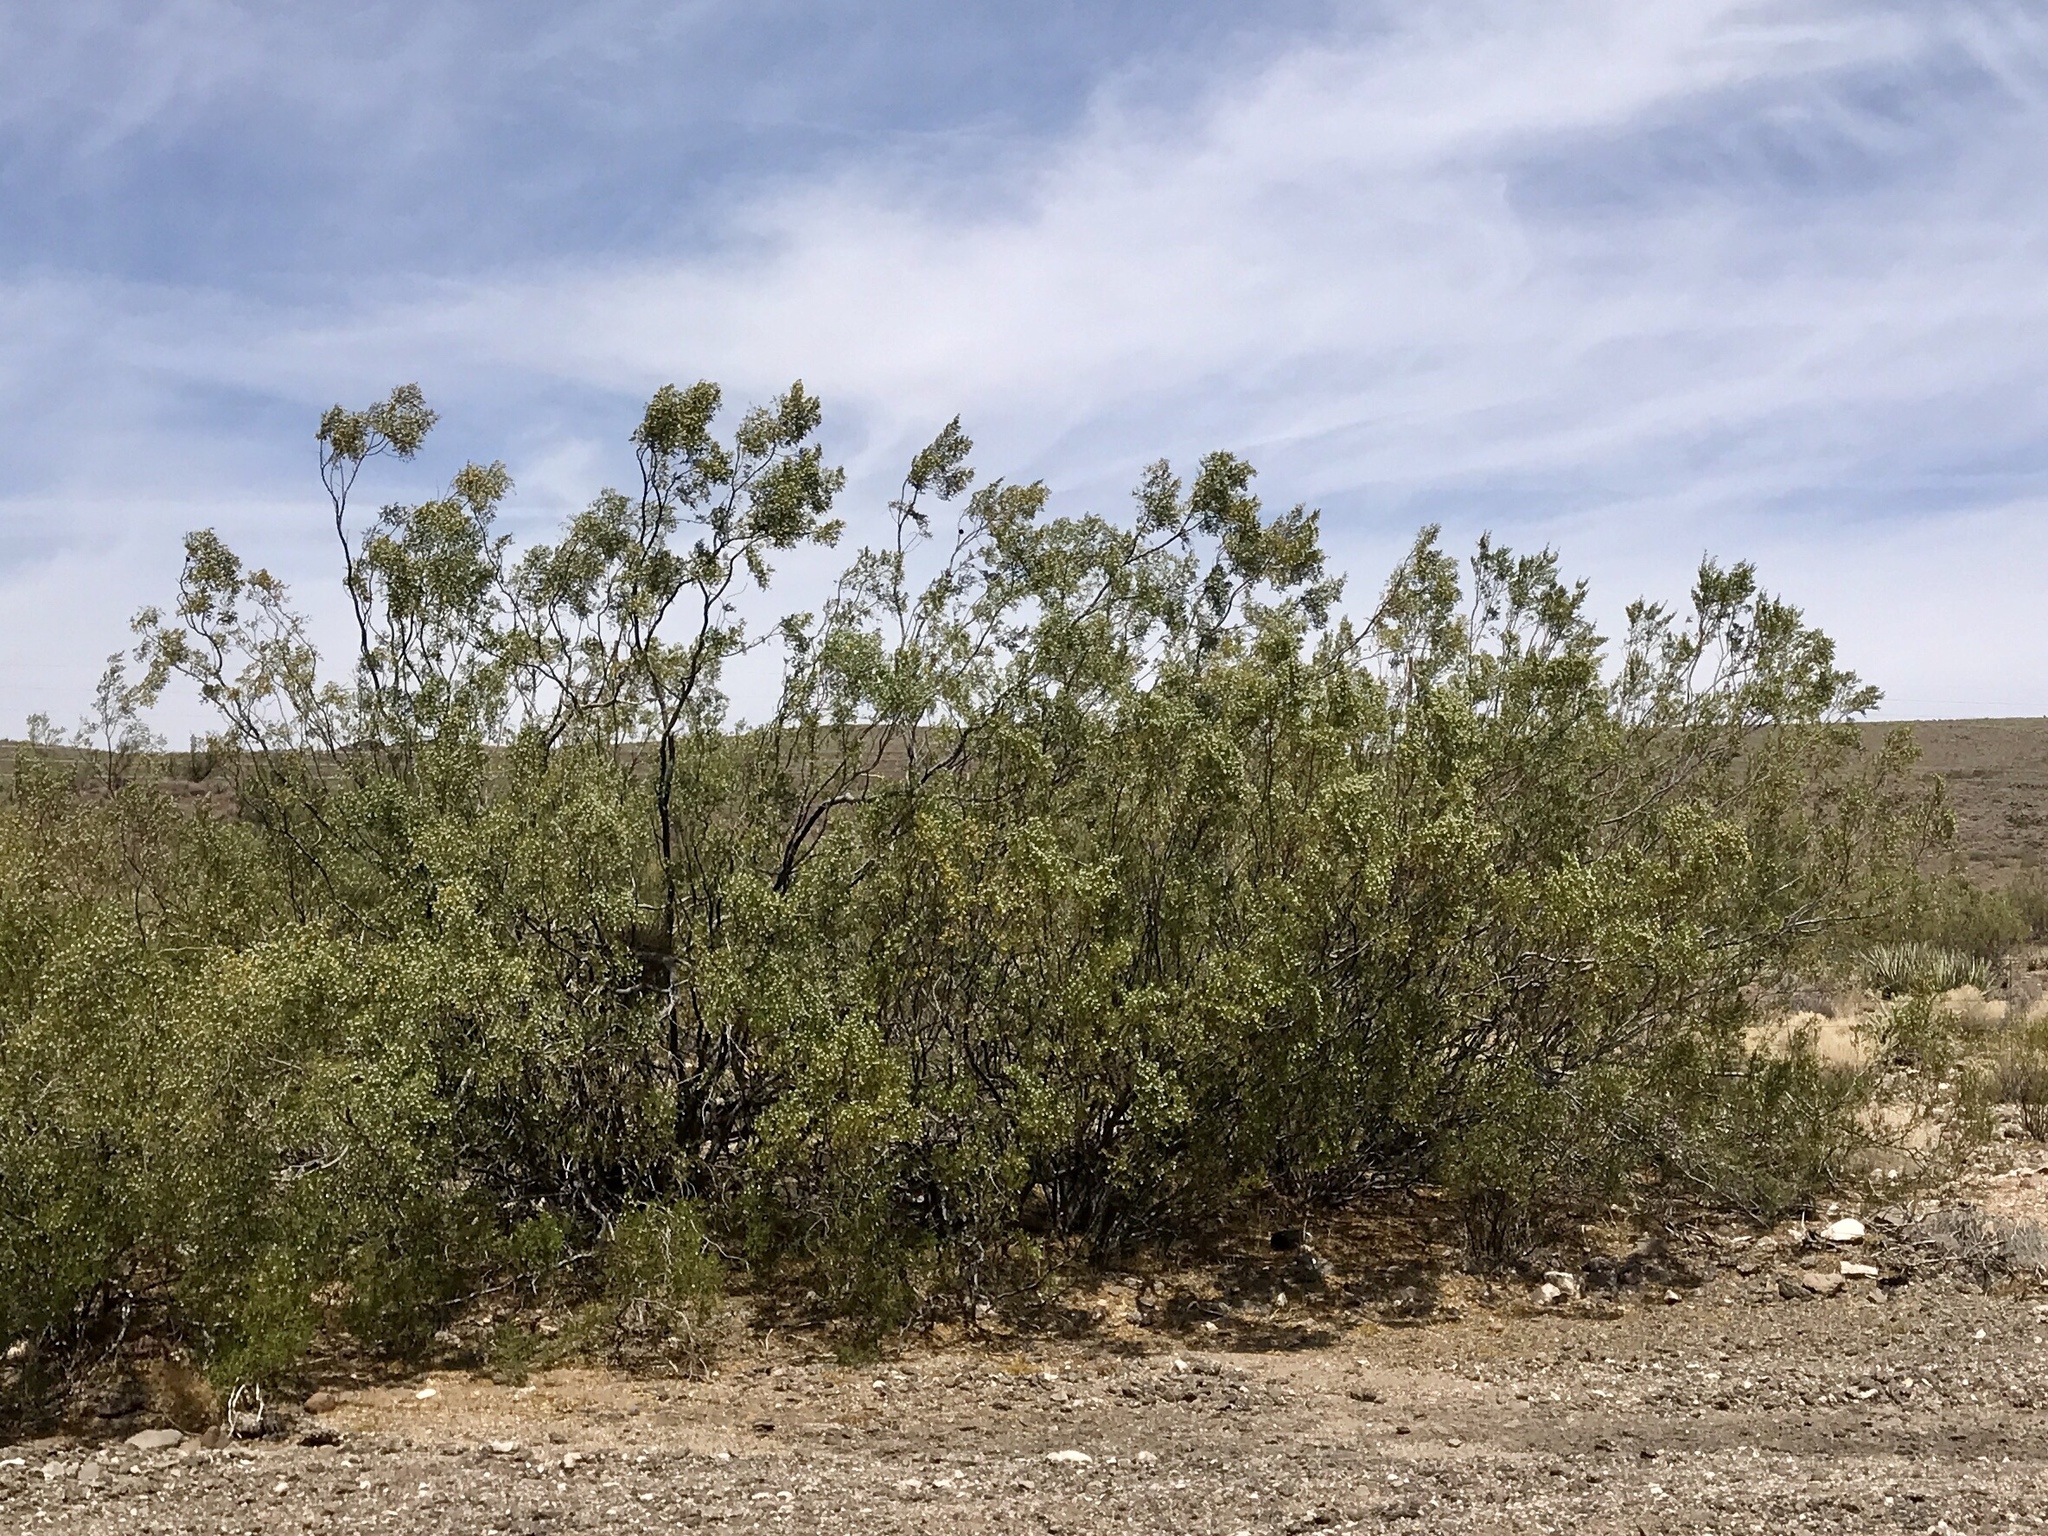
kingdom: Plantae
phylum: Tracheophyta
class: Magnoliopsida
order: Zygophyllales
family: Zygophyllaceae
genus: Larrea
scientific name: Larrea tridentata
